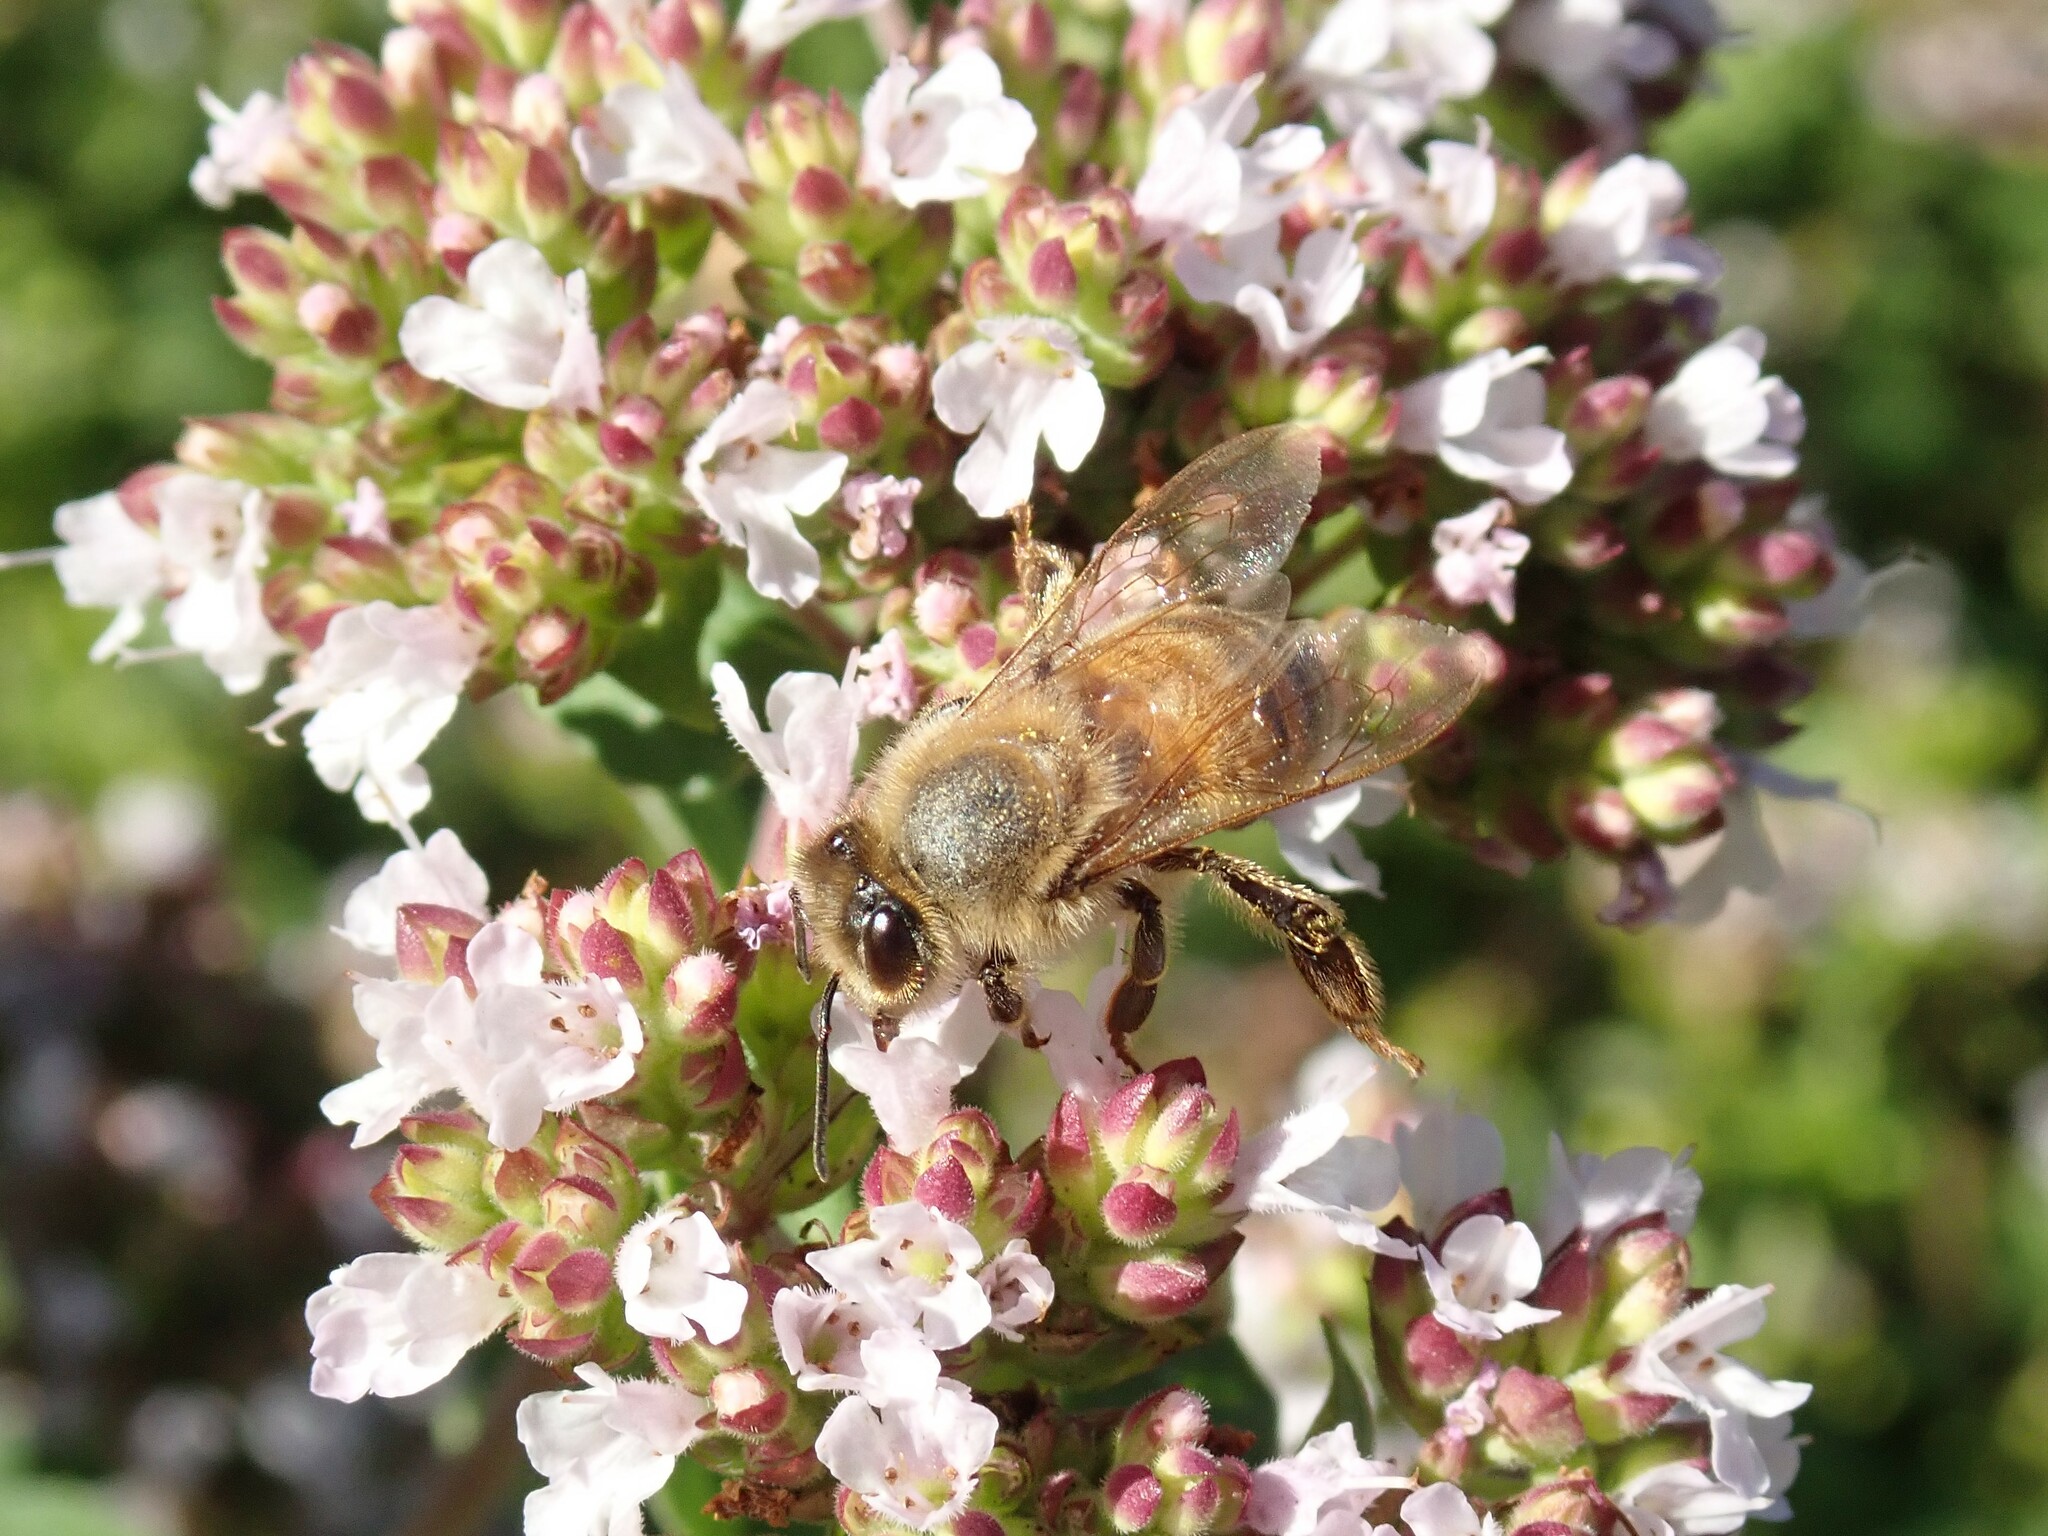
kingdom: Animalia
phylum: Arthropoda
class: Insecta
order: Hymenoptera
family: Apidae
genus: Apis
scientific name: Apis mellifera
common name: Honey bee
